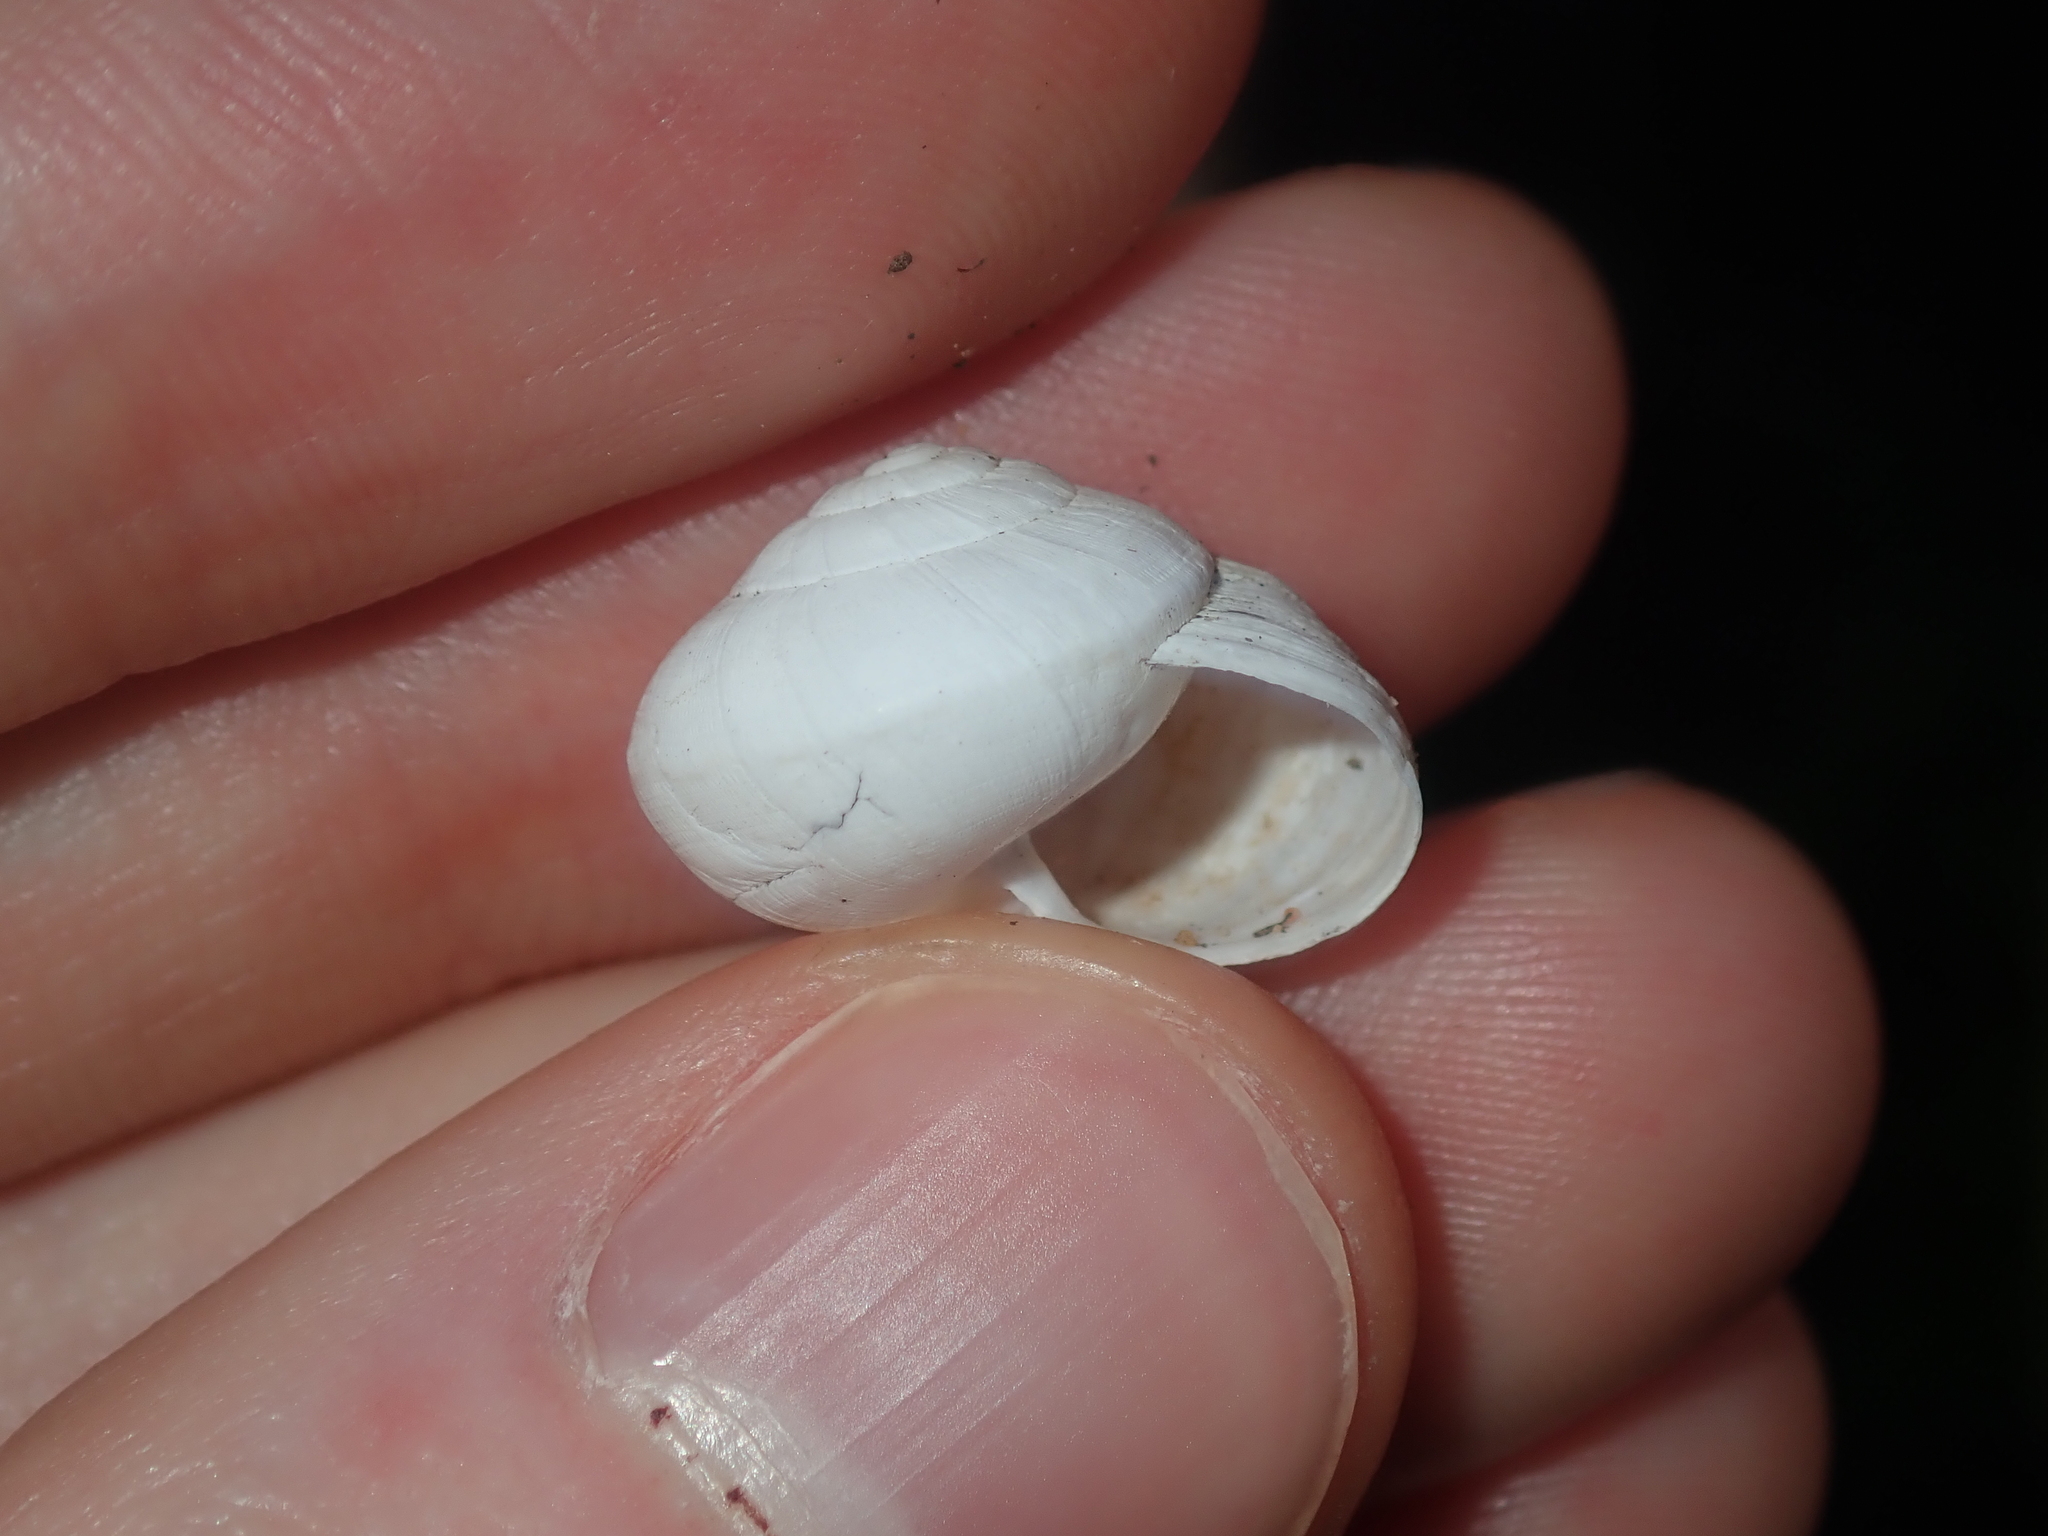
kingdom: Animalia
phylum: Mollusca
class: Gastropoda
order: Stylommatophora
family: Helicidae
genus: Theba
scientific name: Theba pisana
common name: White snail
